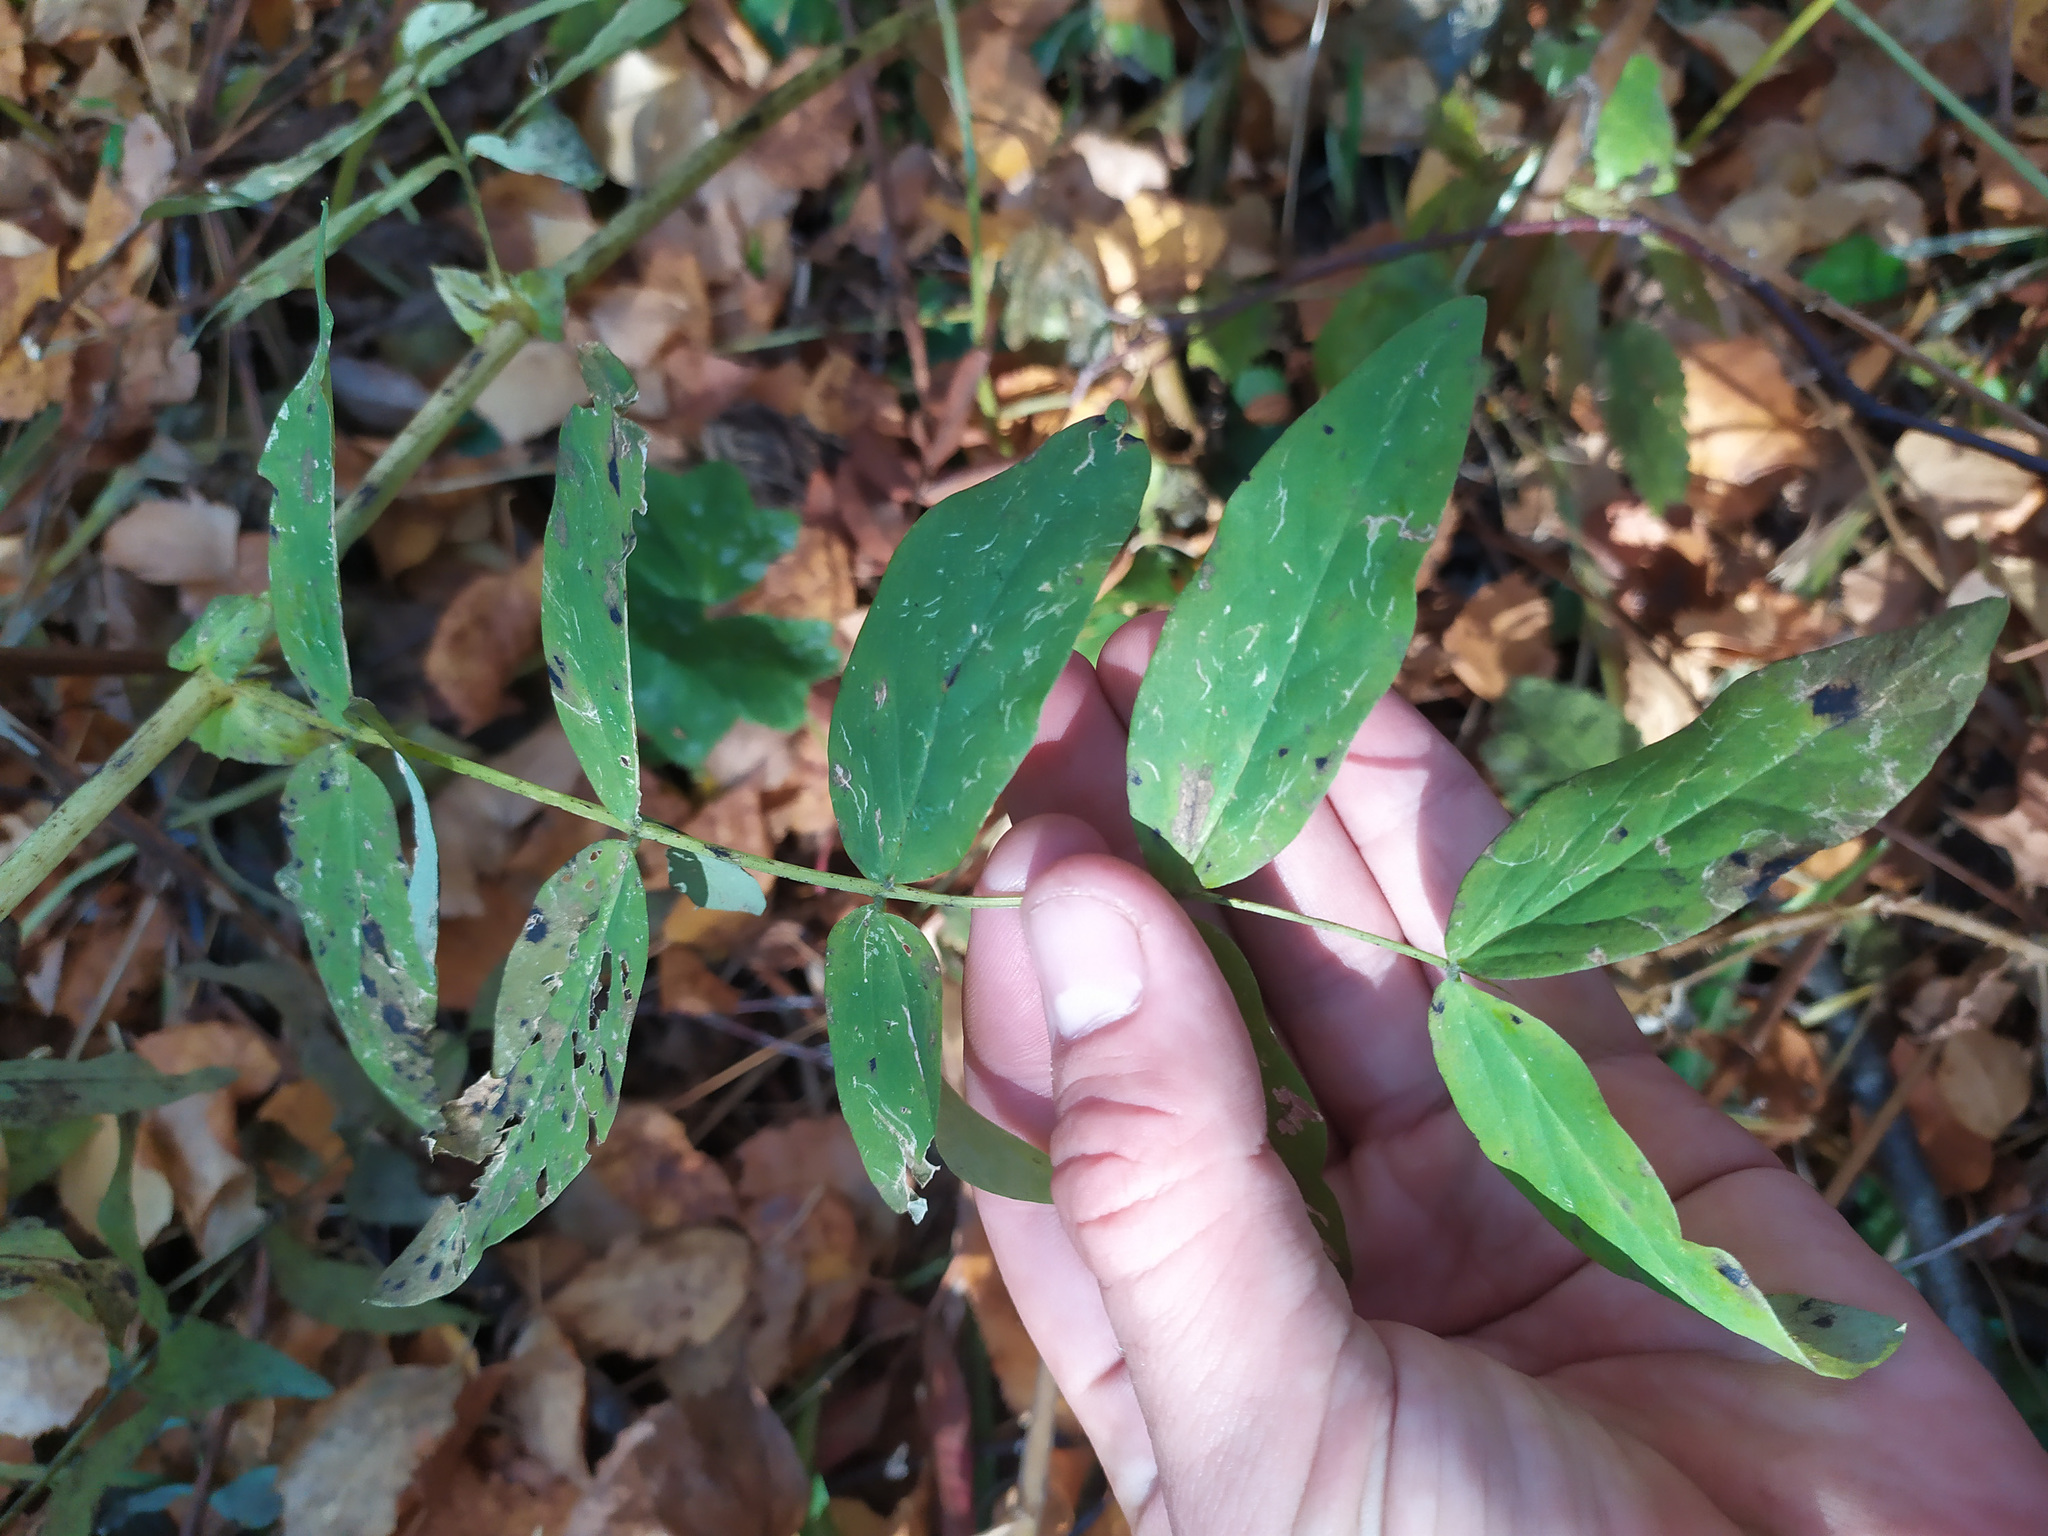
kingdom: Plantae
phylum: Tracheophyta
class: Magnoliopsida
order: Fabales
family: Fabaceae
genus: Lathyrus
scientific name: Lathyrus gmelinii
